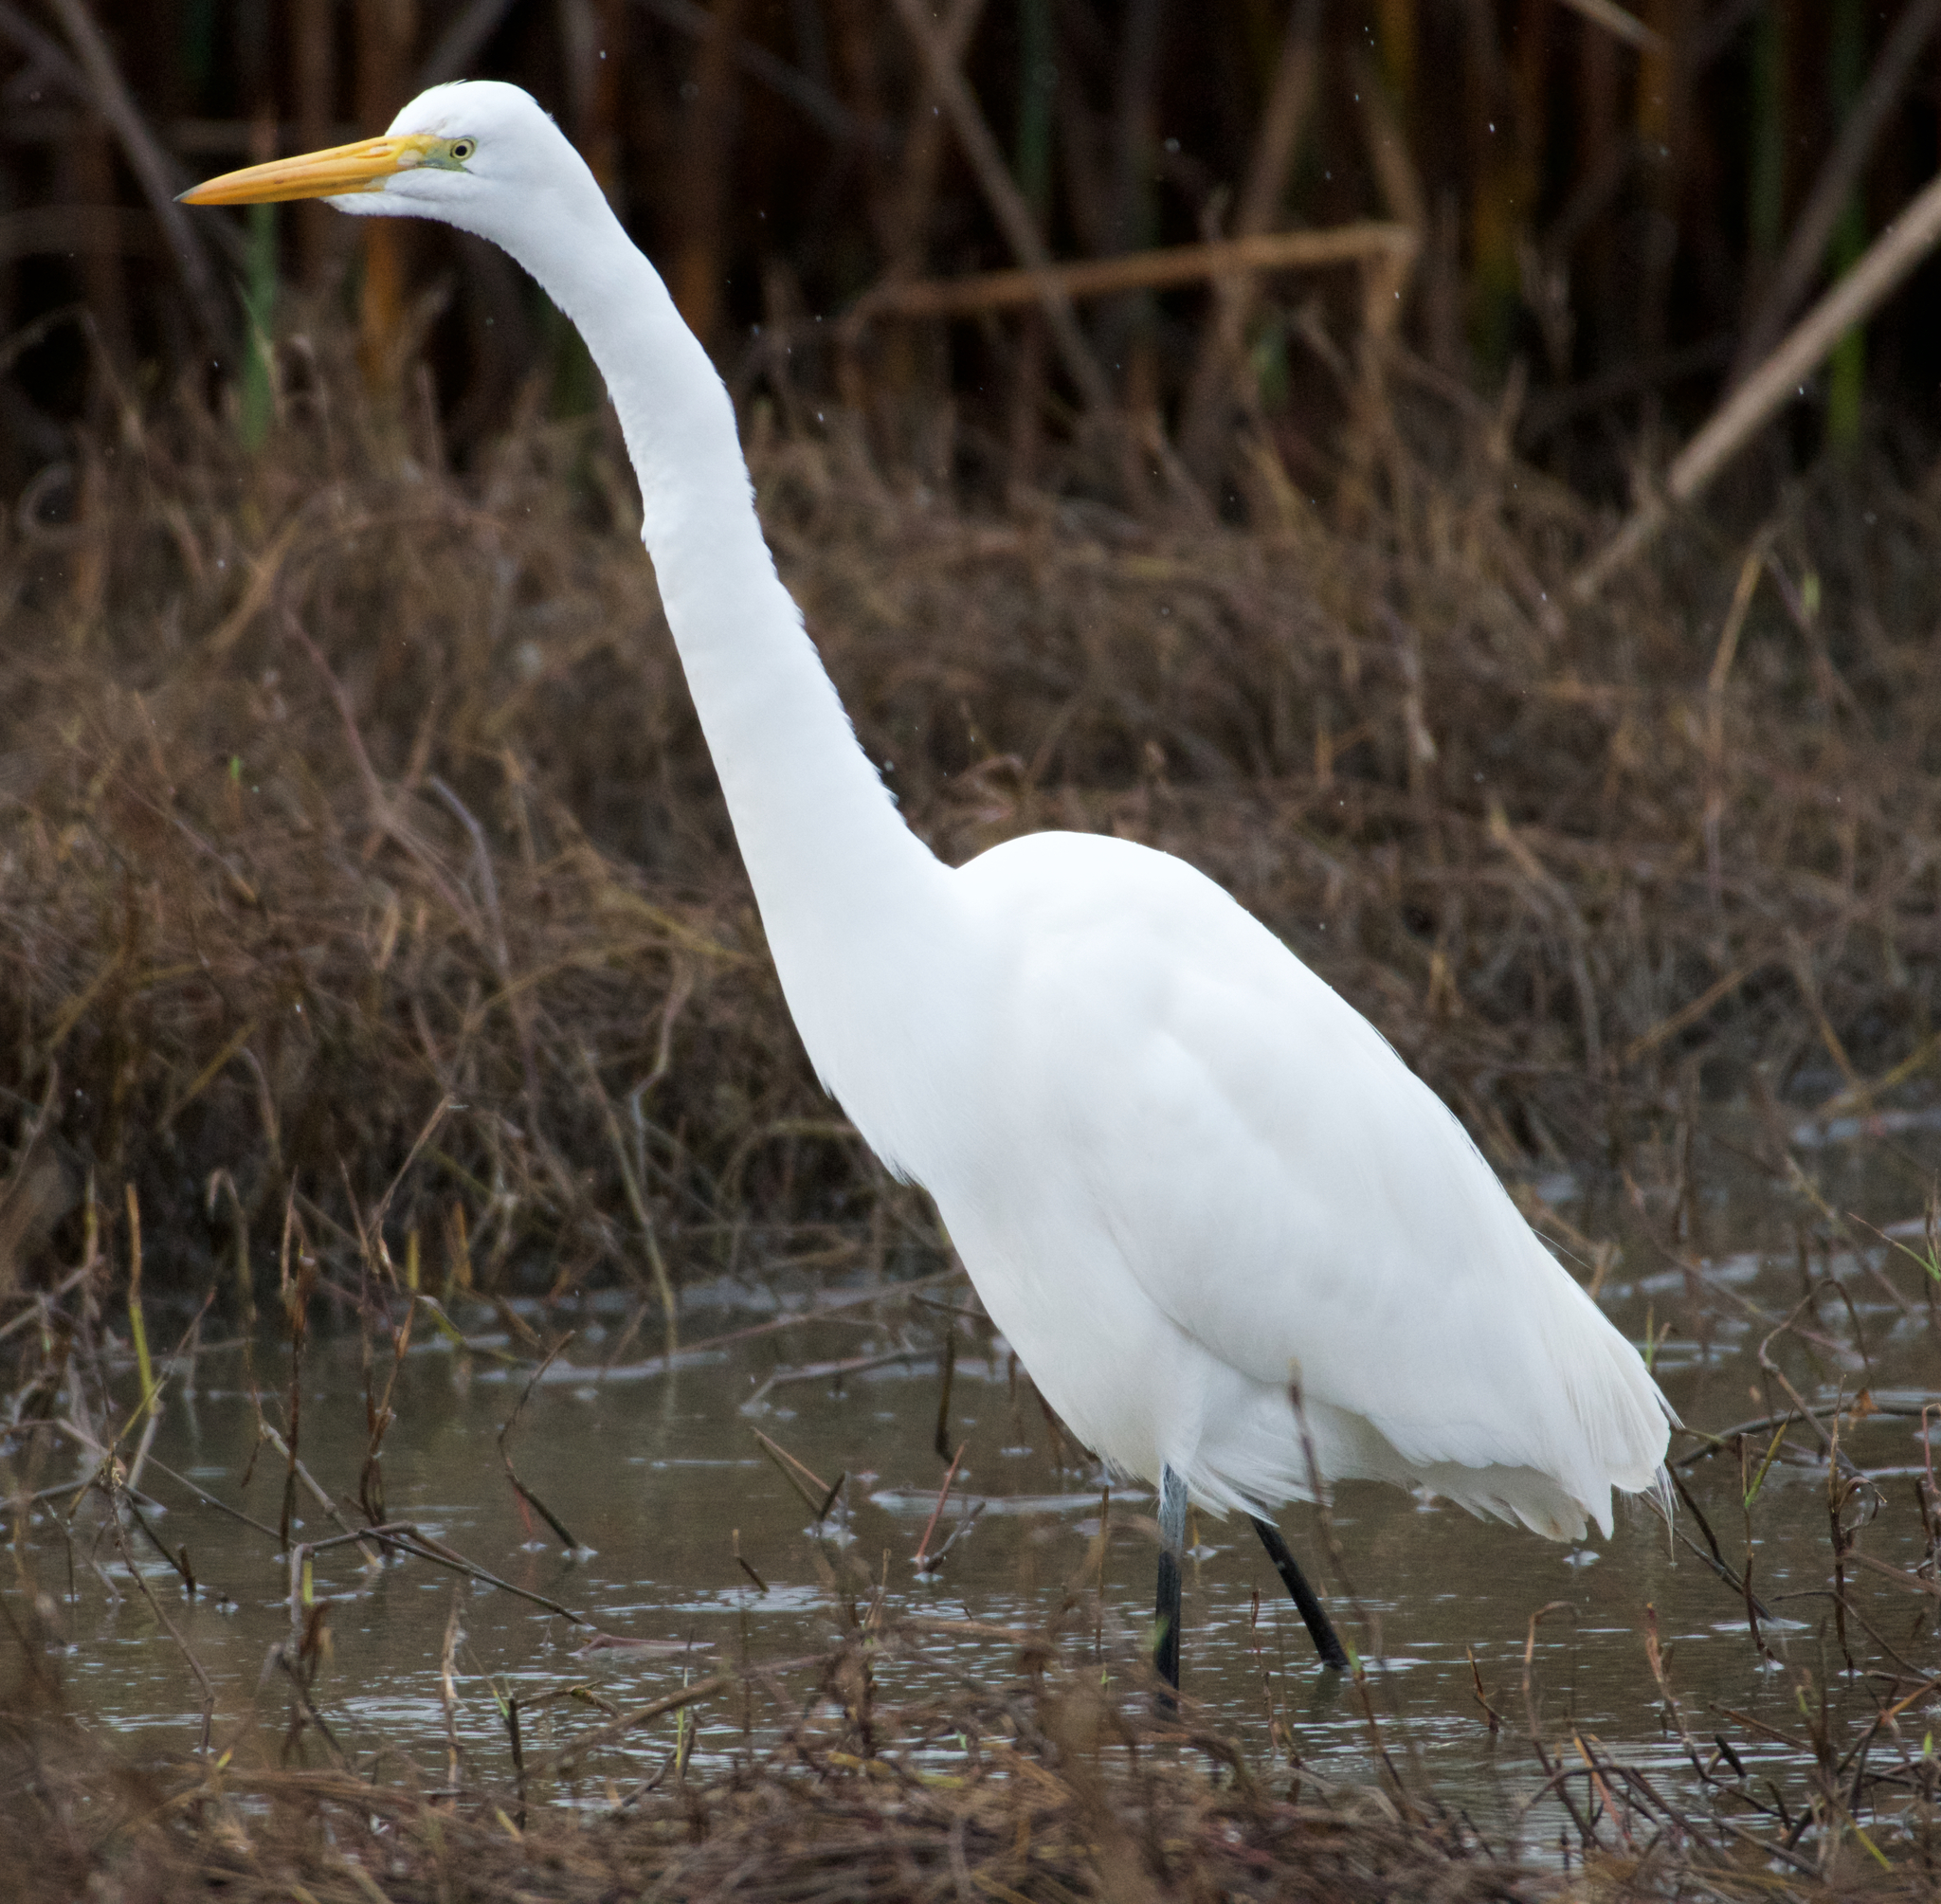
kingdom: Animalia
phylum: Chordata
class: Aves
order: Pelecaniformes
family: Ardeidae
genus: Ardea
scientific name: Ardea alba
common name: Great egret
